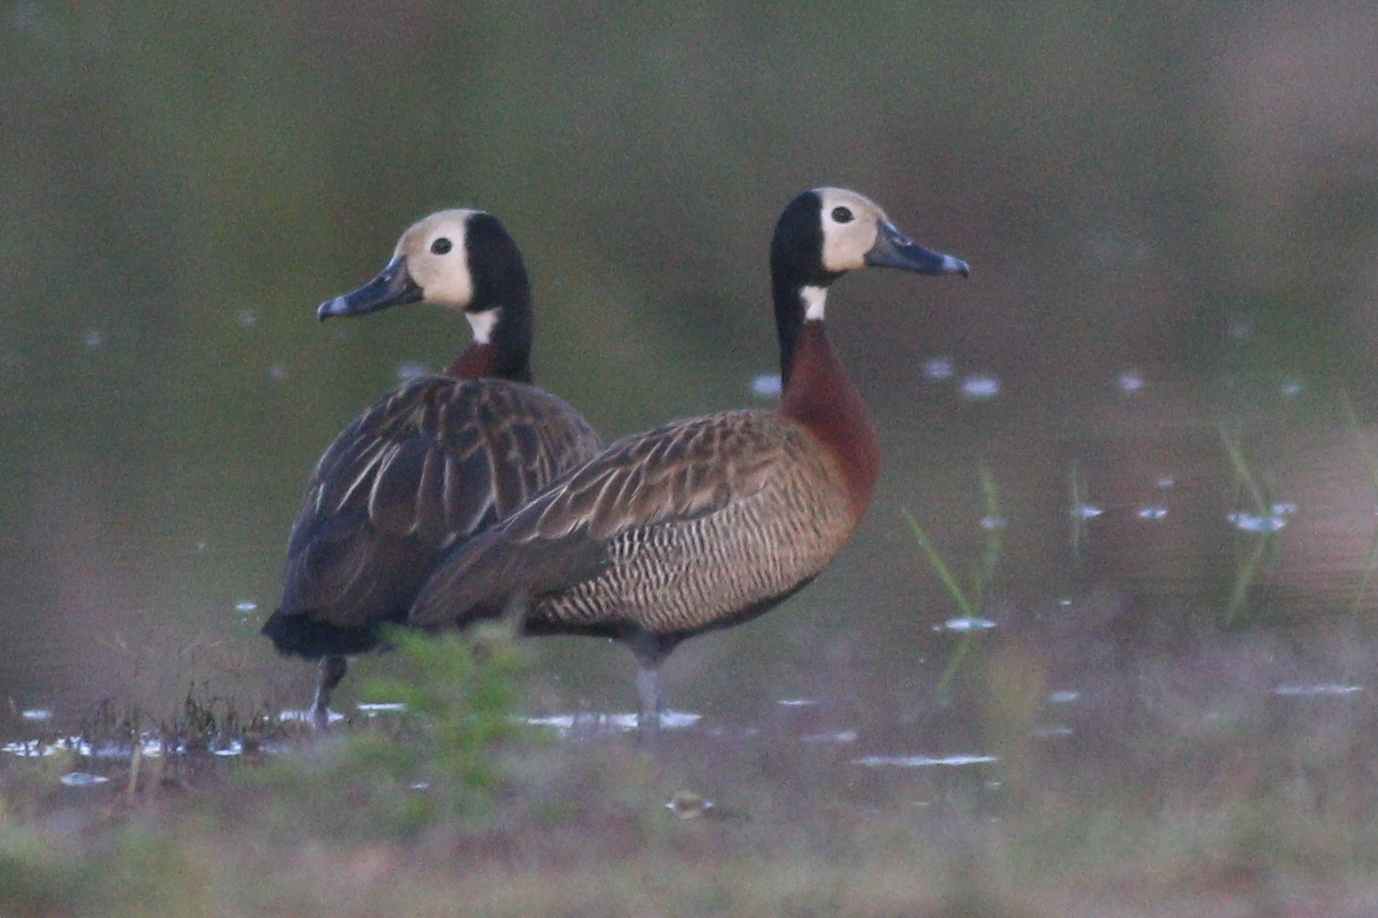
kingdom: Animalia
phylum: Chordata
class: Aves
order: Anseriformes
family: Anatidae
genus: Dendrocygna
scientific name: Dendrocygna viduata
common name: White-faced whistling duck
